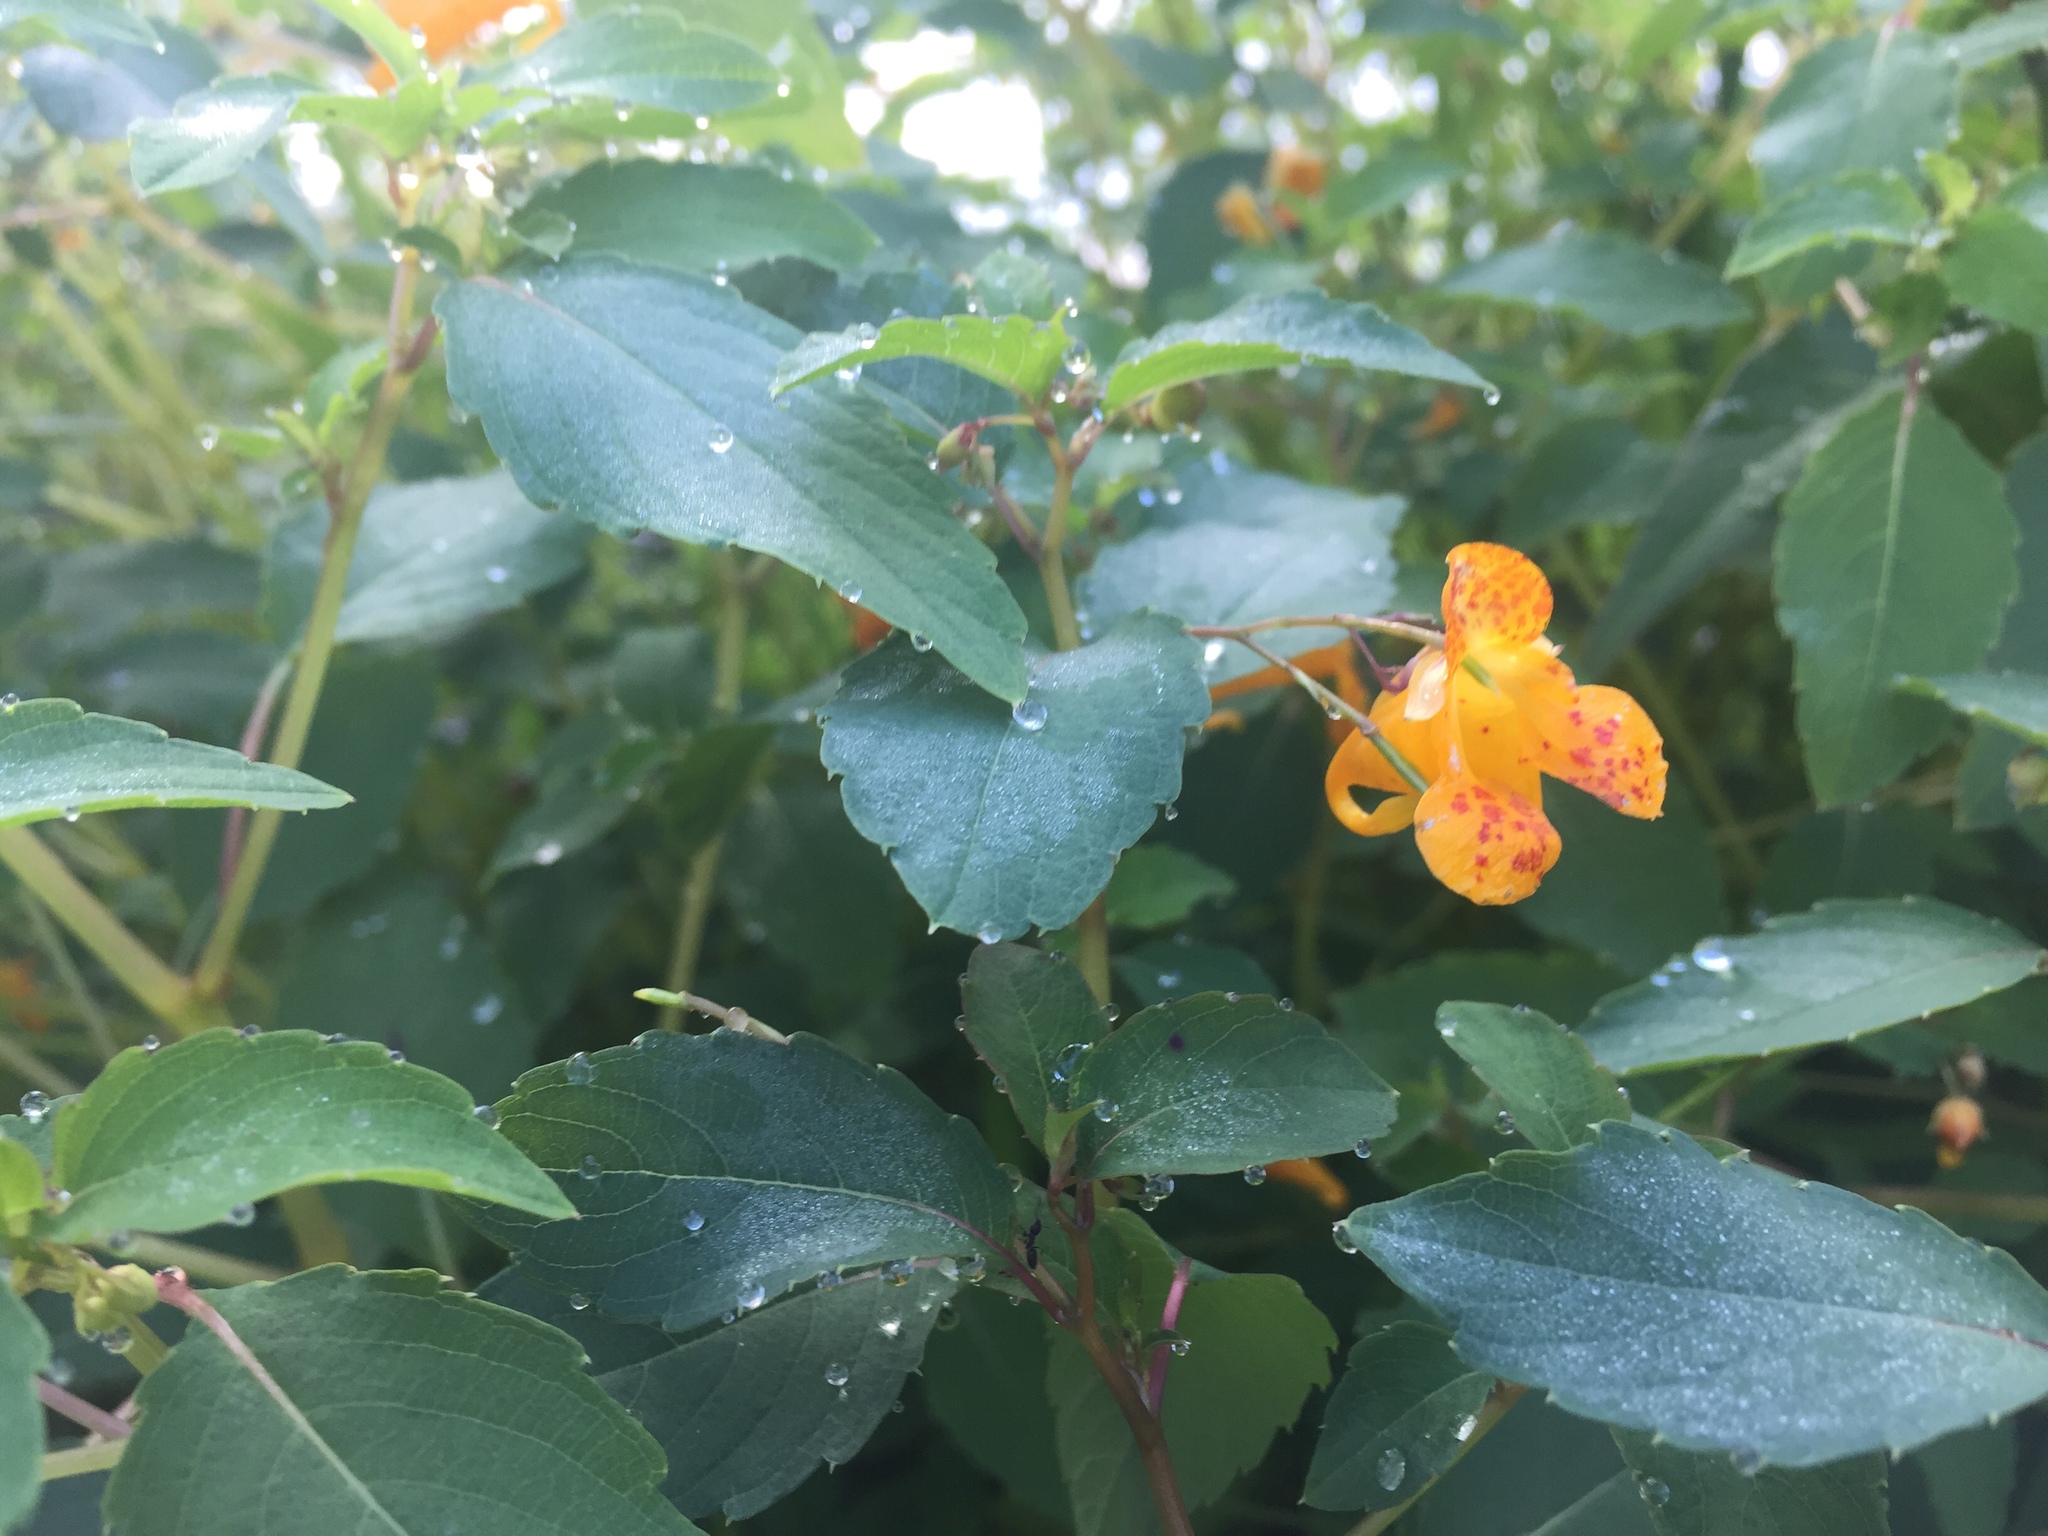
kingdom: Plantae
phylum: Tracheophyta
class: Magnoliopsida
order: Ericales
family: Balsaminaceae
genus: Impatiens
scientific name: Impatiens capensis
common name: Orange balsam
